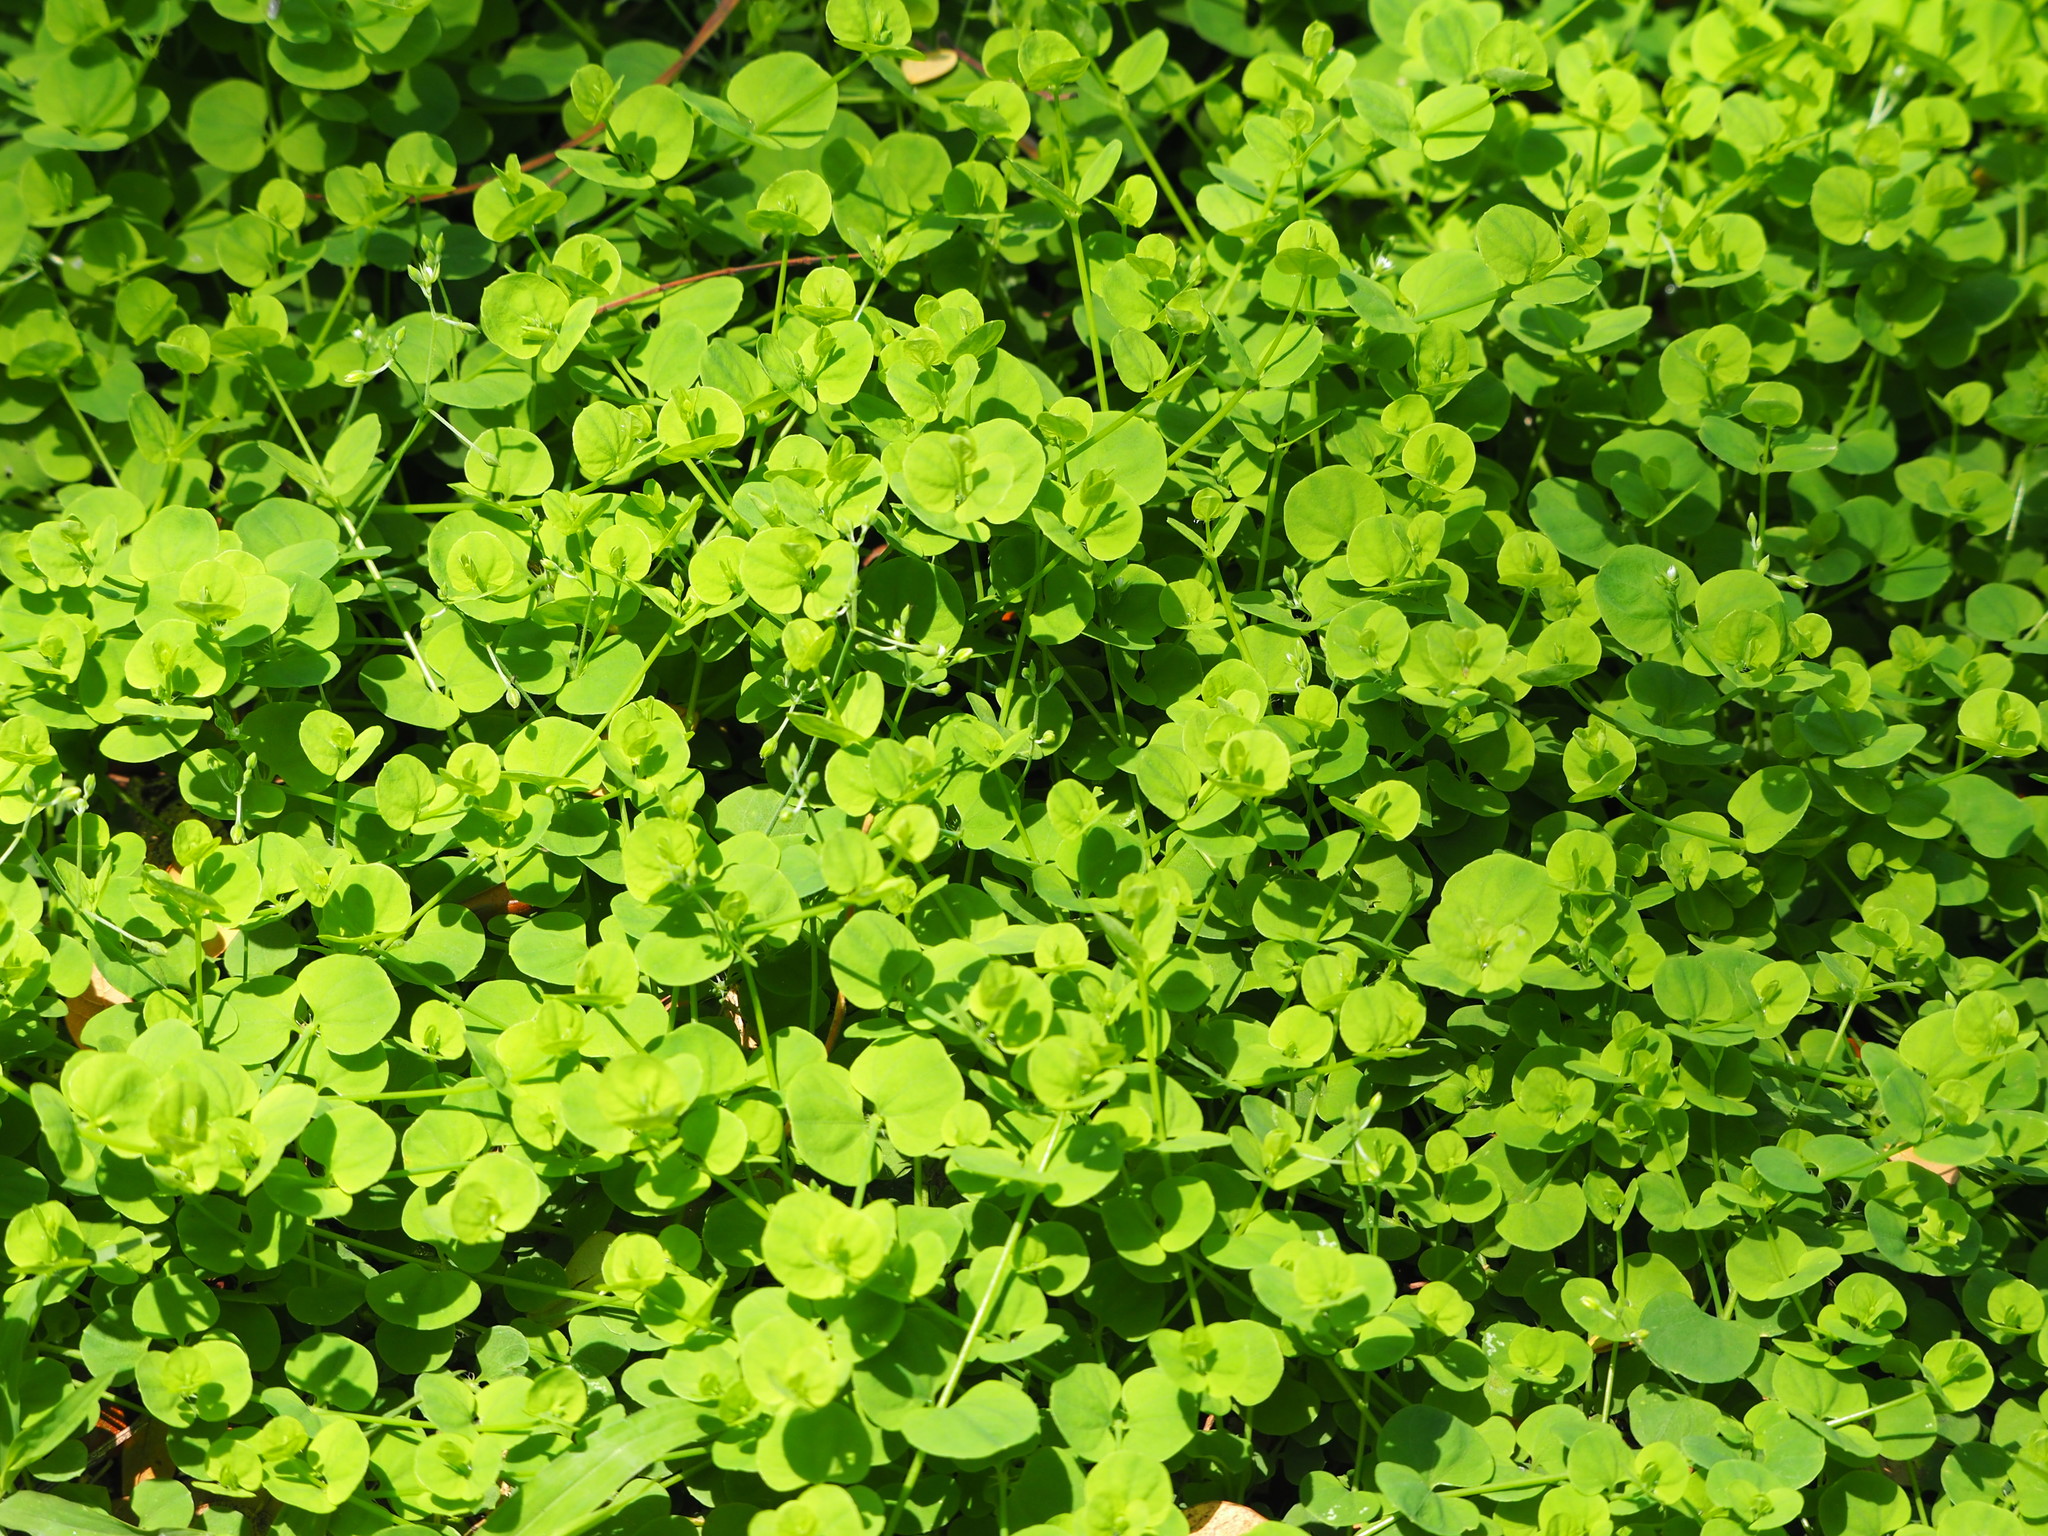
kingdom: Plantae
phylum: Tracheophyta
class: Magnoliopsida
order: Caryophyllales
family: Caryophyllaceae
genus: Drymaria
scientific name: Drymaria cordata
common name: Whitesnow
